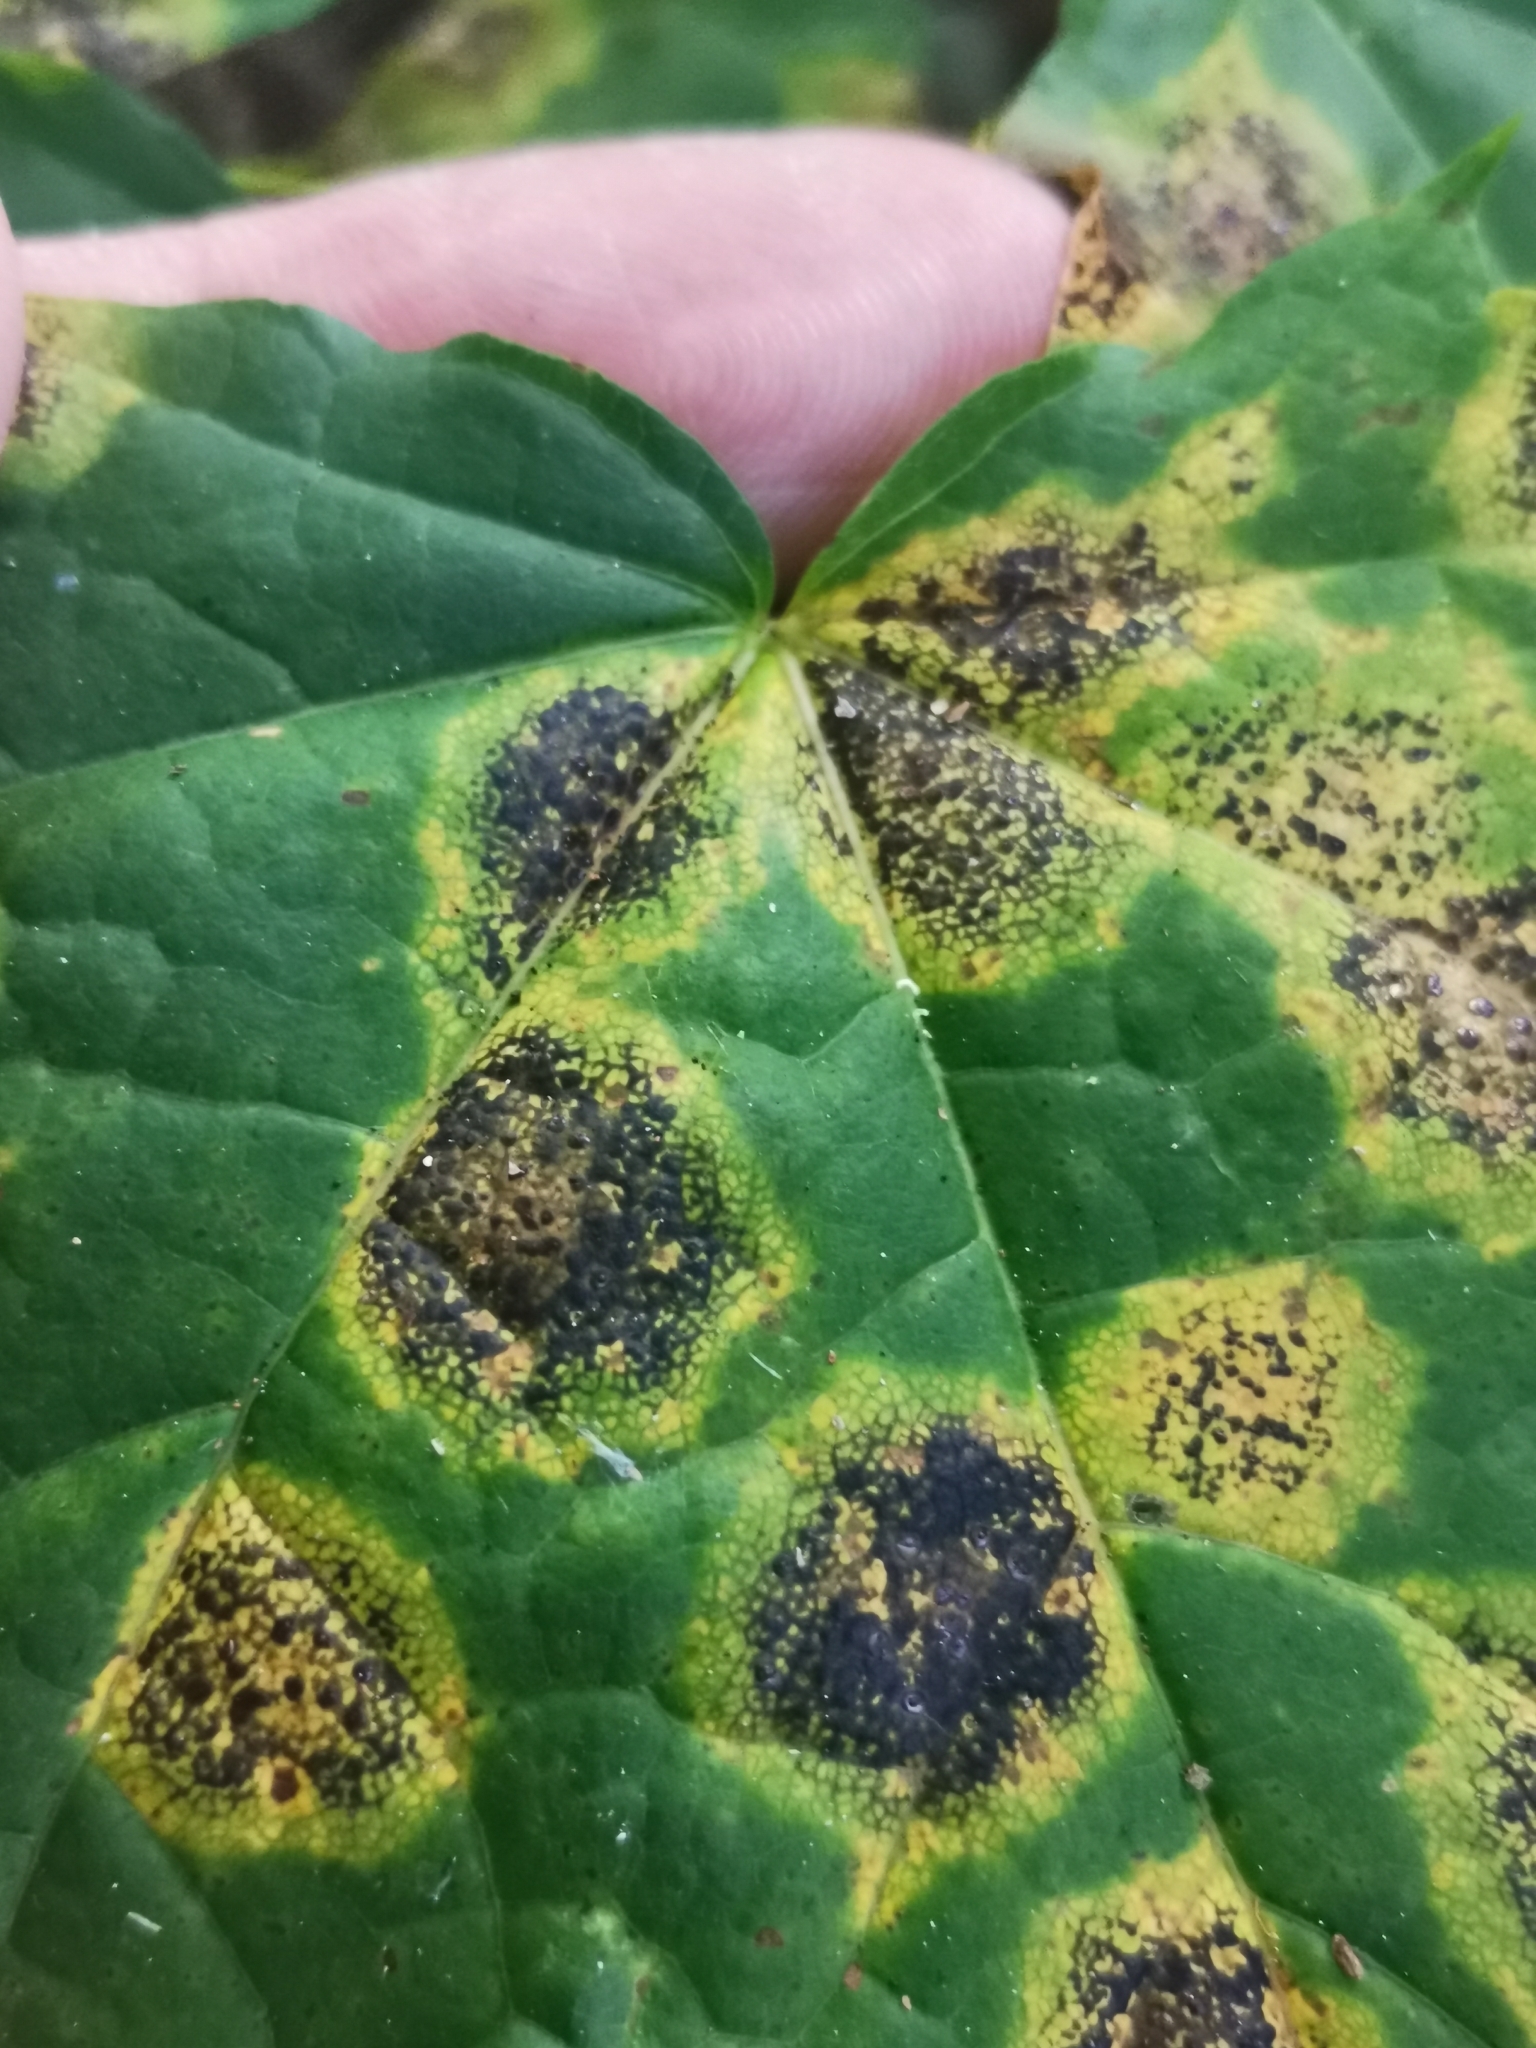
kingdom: Fungi
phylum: Ascomycota
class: Leotiomycetes
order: Rhytismatales
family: Rhytismataceae
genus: Rhytisma
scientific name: Rhytisma acerinum
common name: European tar spot
